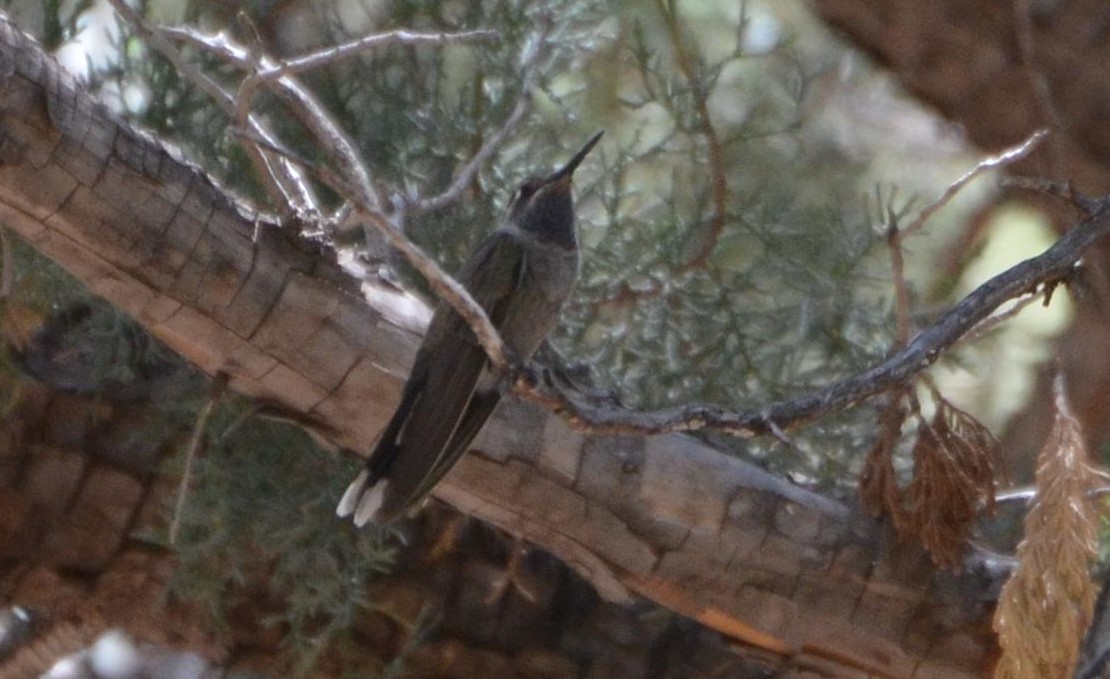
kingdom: Animalia
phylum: Chordata
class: Aves
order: Apodiformes
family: Trochilidae
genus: Lampornis
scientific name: Lampornis clemenciae
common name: Blue-throated mountaingem
